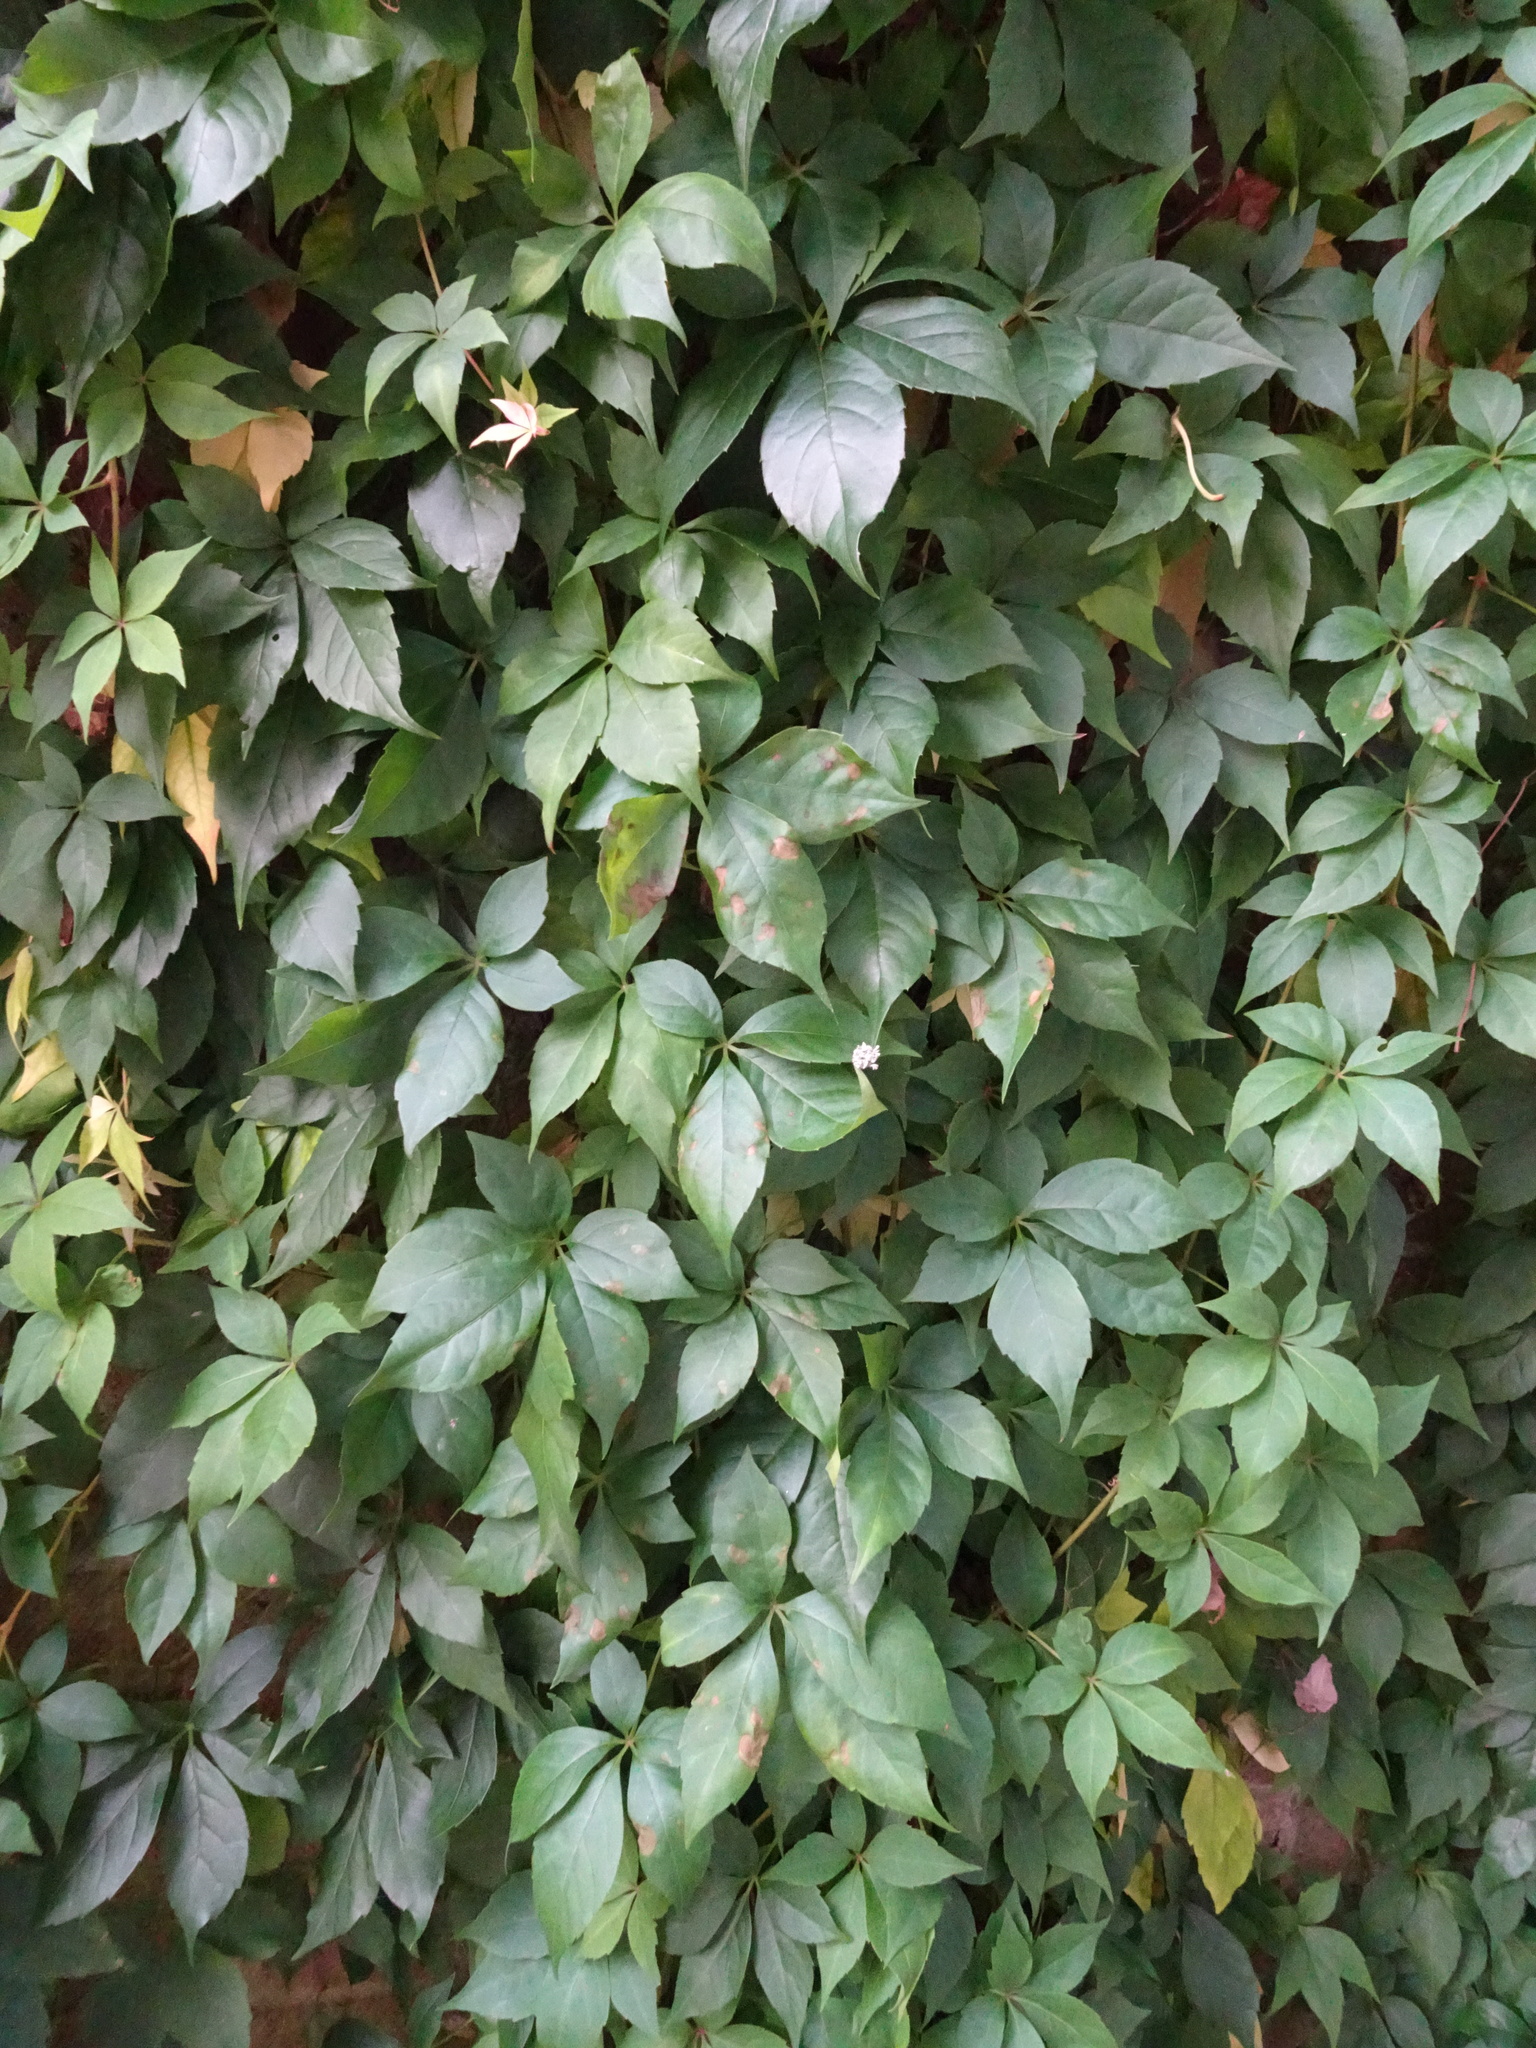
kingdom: Plantae
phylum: Tracheophyta
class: Magnoliopsida
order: Vitales
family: Vitaceae
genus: Parthenocissus
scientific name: Parthenocissus quinquefolia
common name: Virginia-creeper
